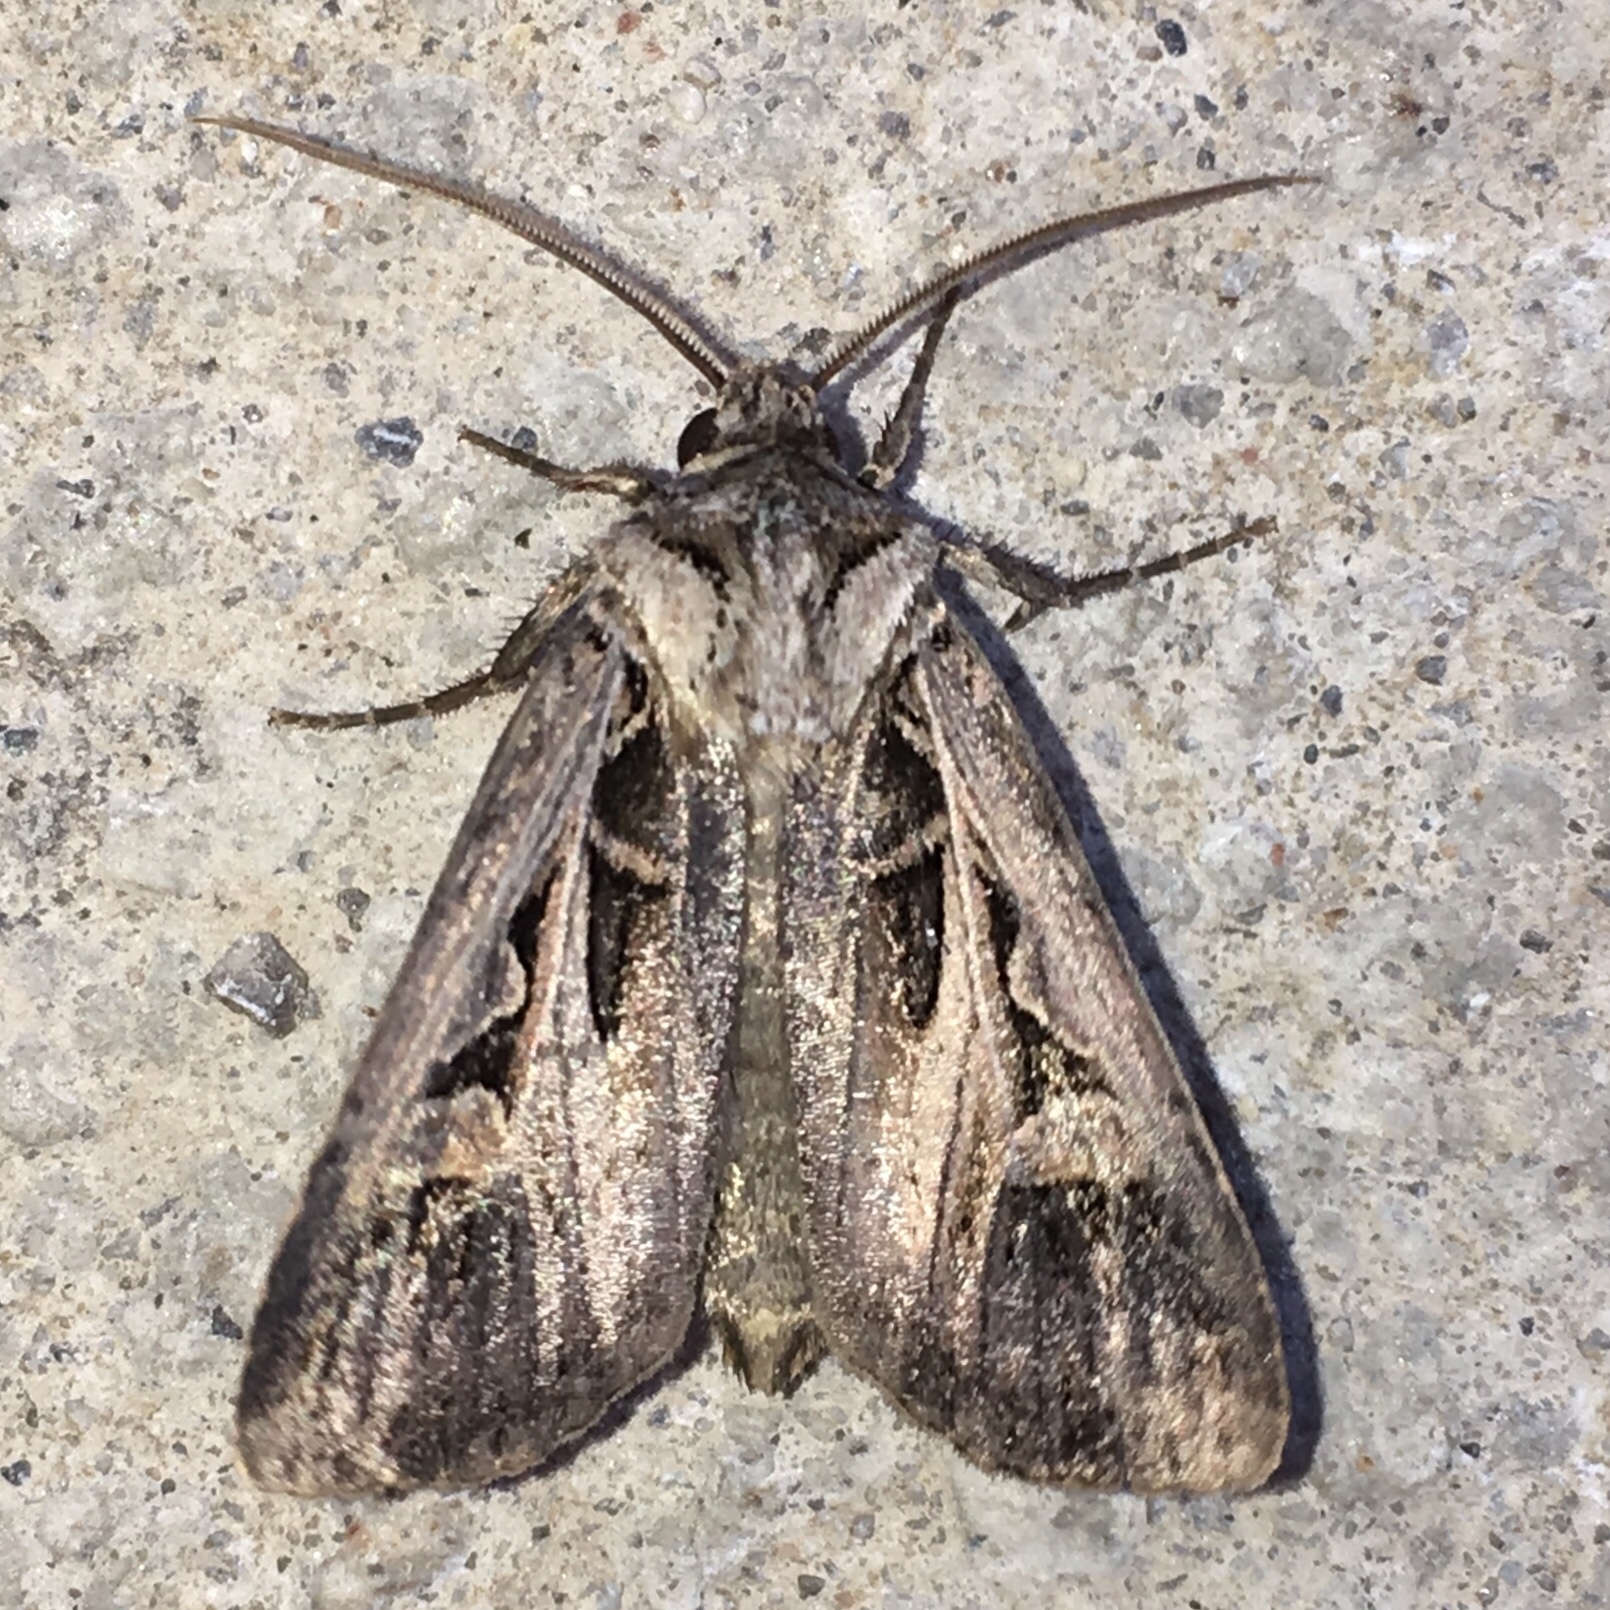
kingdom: Animalia
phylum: Arthropoda
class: Insecta
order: Lepidoptera
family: Noctuidae
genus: Feltia
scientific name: Feltia jaculifera
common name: Dingy cutworm moth
